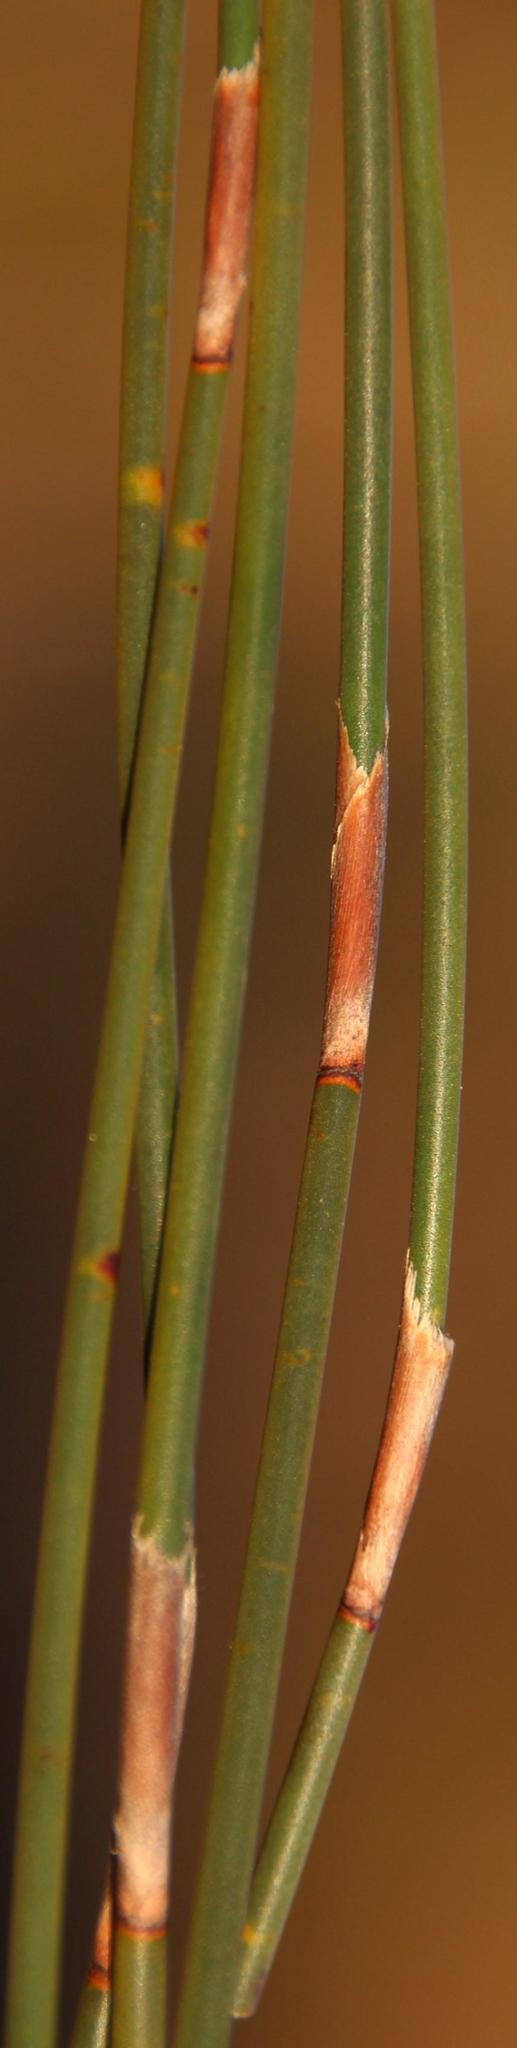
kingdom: Plantae
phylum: Tracheophyta
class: Liliopsida
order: Poales
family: Restionaceae
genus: Rhodocoma
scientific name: Rhodocoma fruticosa
